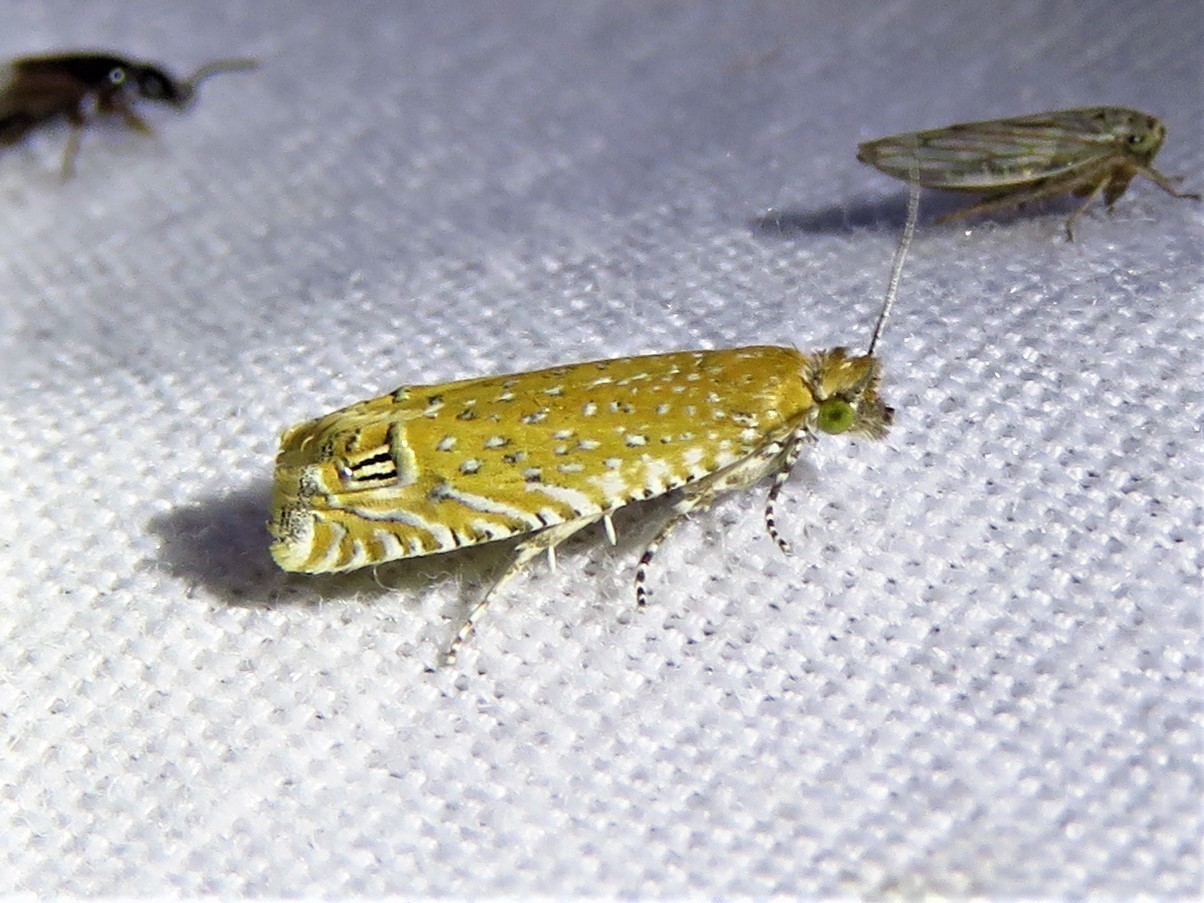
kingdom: Animalia
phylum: Arthropoda
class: Insecta
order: Lepidoptera
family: Tortricidae
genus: Pelochrista
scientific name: Pelochrista albiguttana
